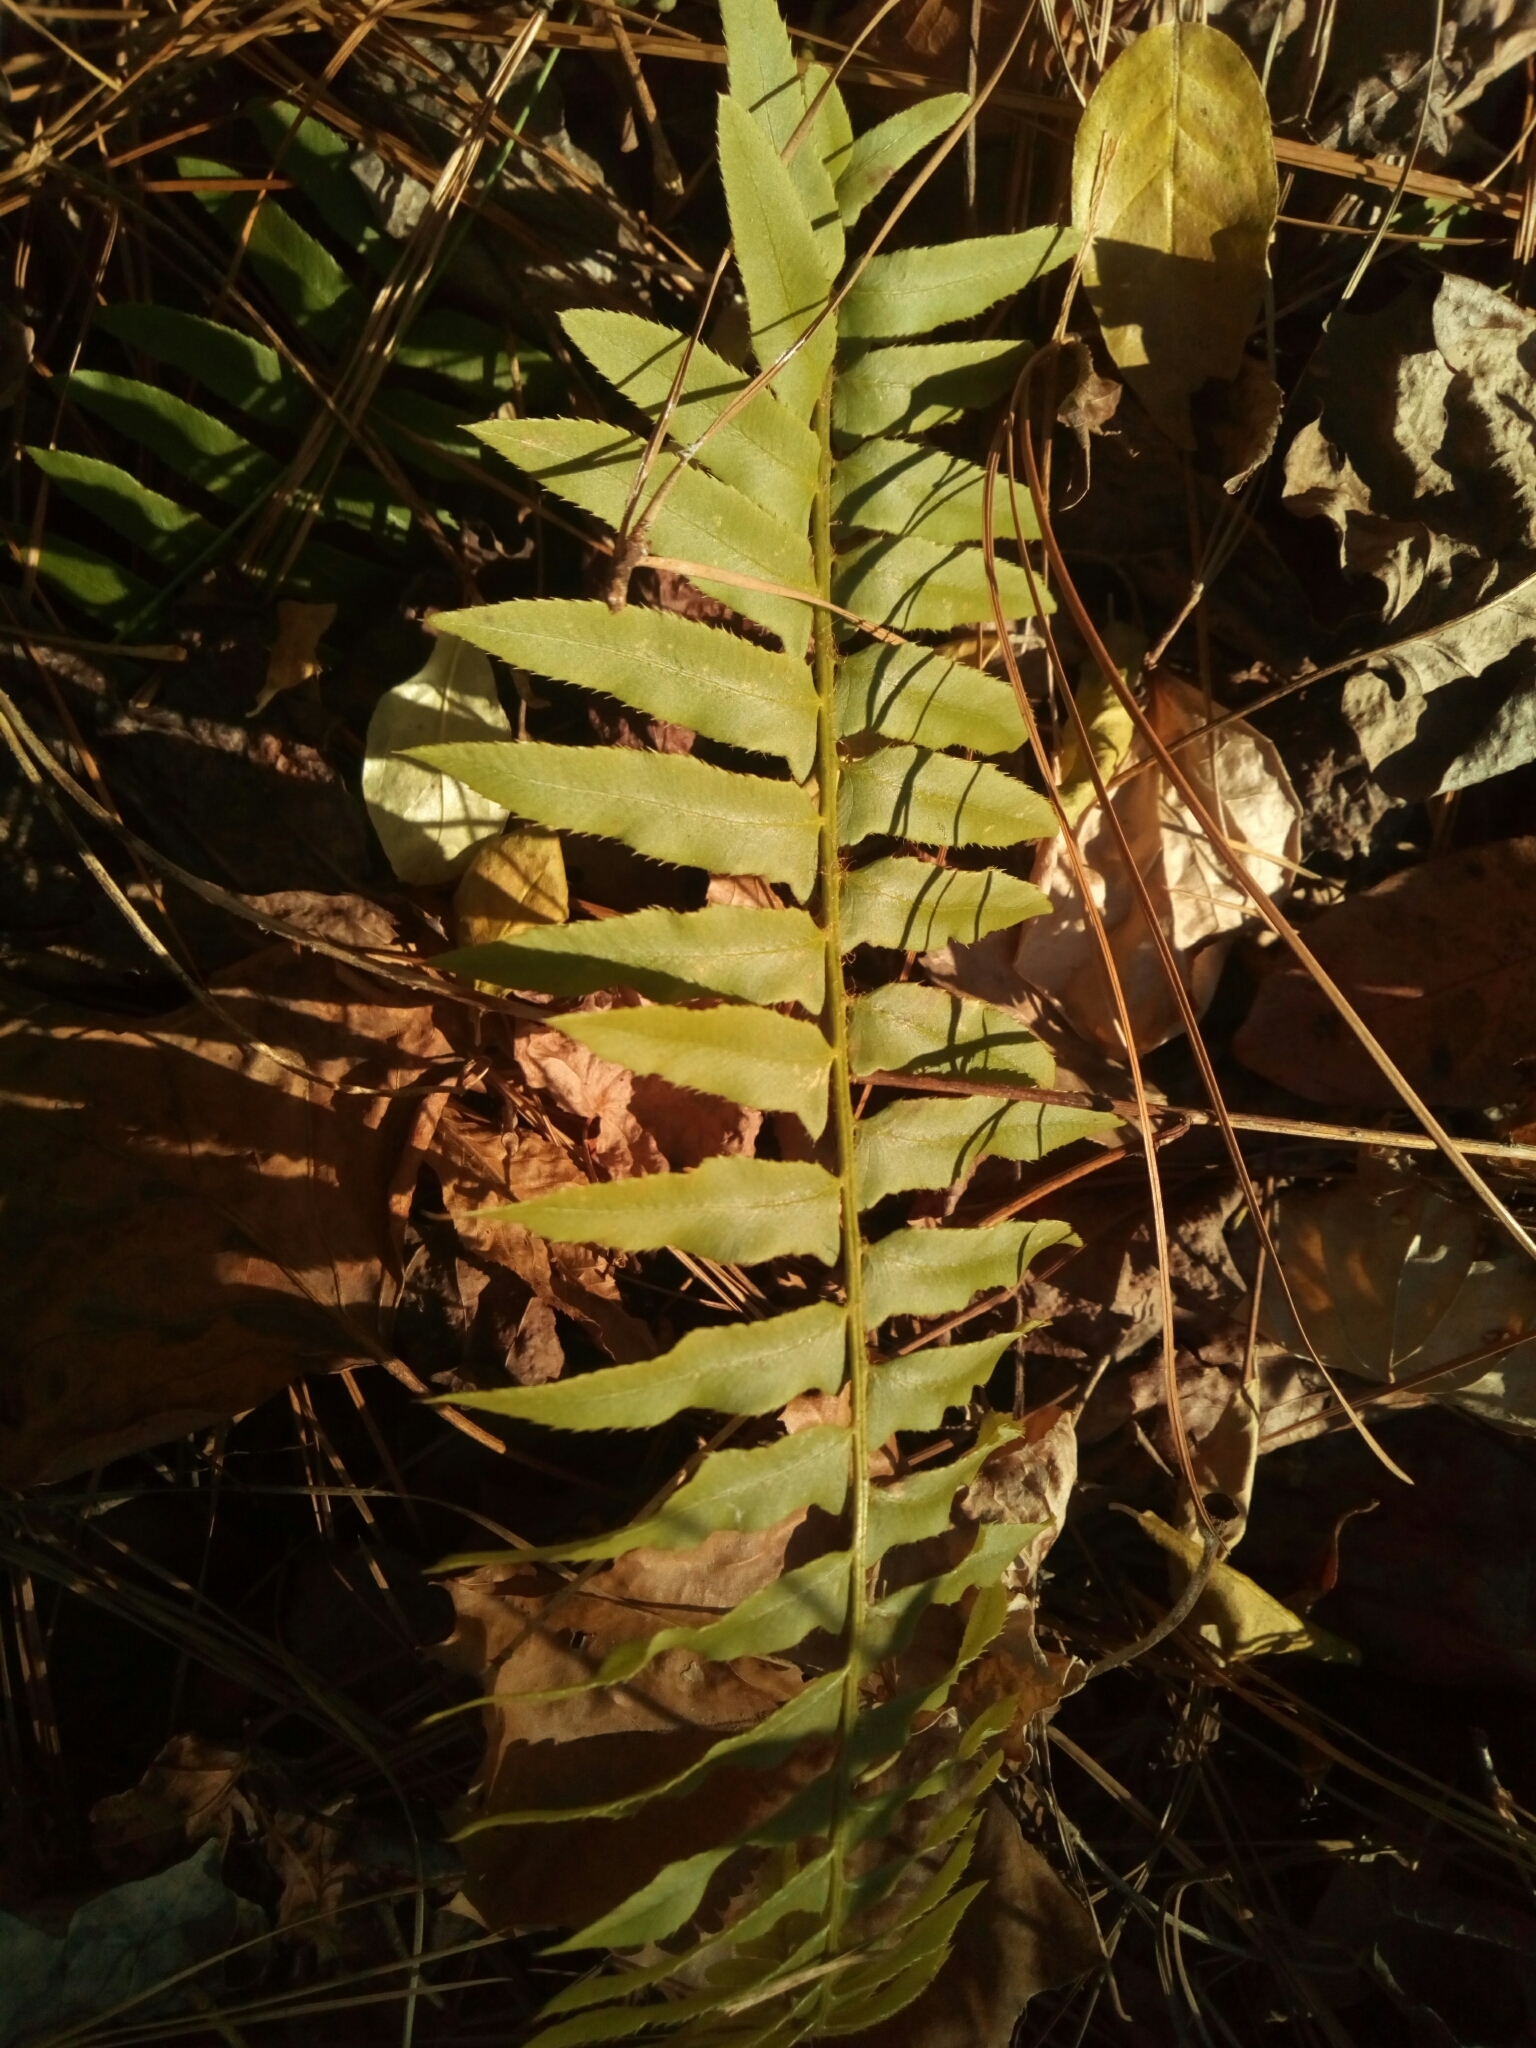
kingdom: Plantae
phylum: Tracheophyta
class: Polypodiopsida
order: Polypodiales
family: Dryopteridaceae
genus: Polystichum
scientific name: Polystichum acrostichoides
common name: Christmas fern
